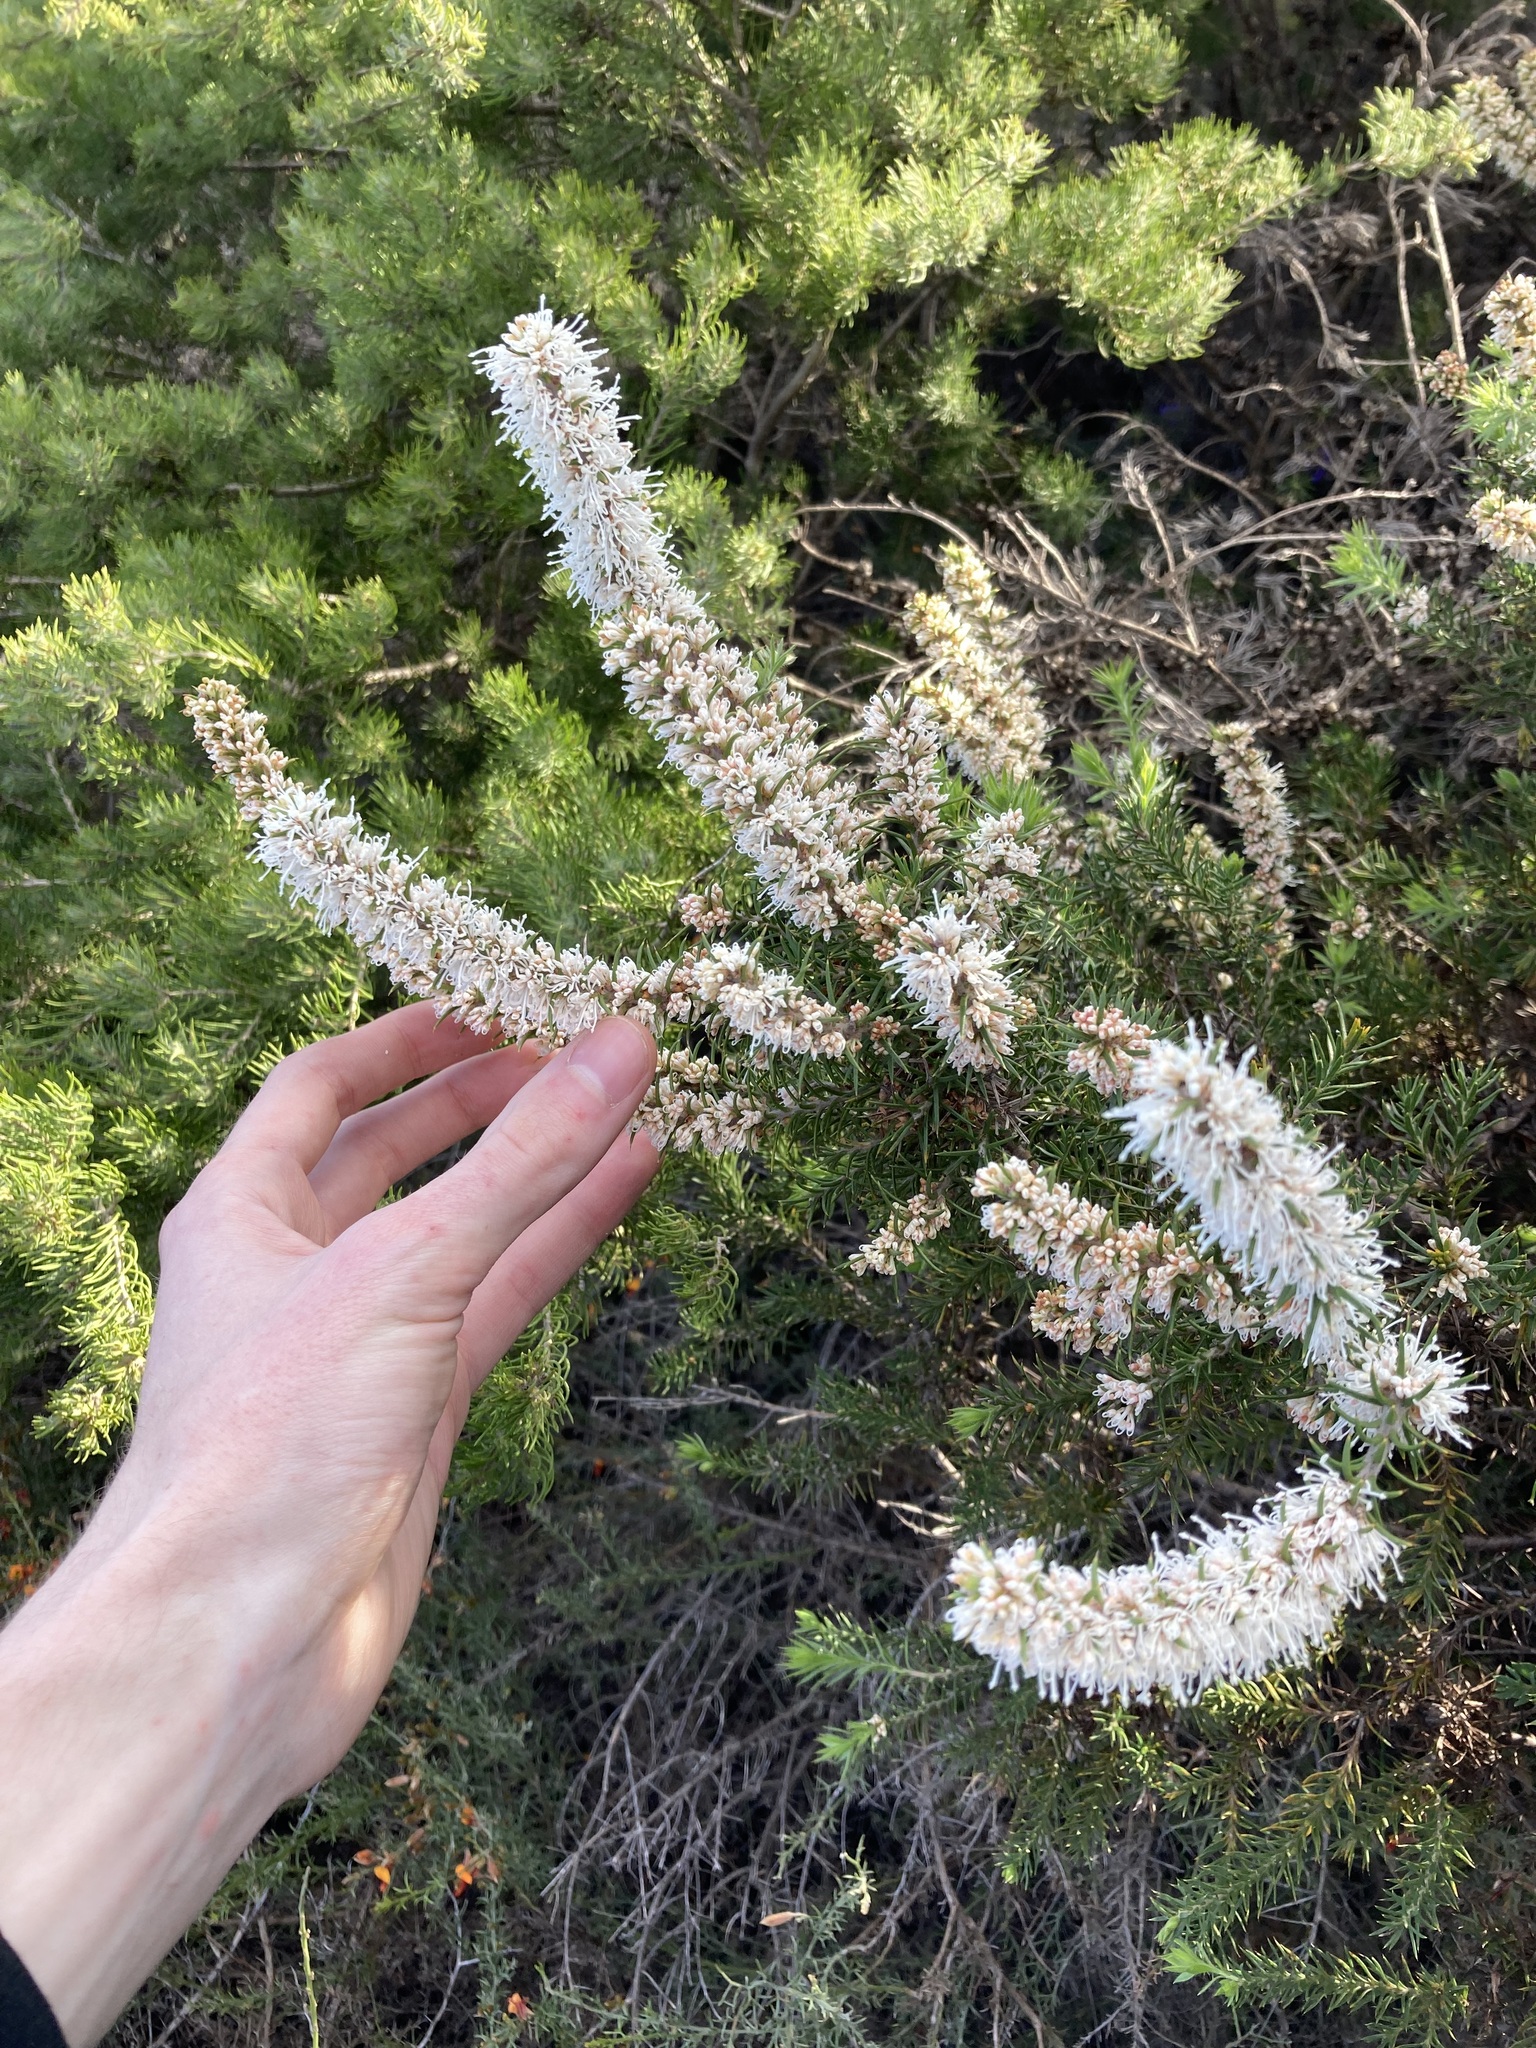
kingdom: Plantae
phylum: Tracheophyta
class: Magnoliopsida
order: Proteales
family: Proteaceae
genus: Hakea
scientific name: Hakea costata
